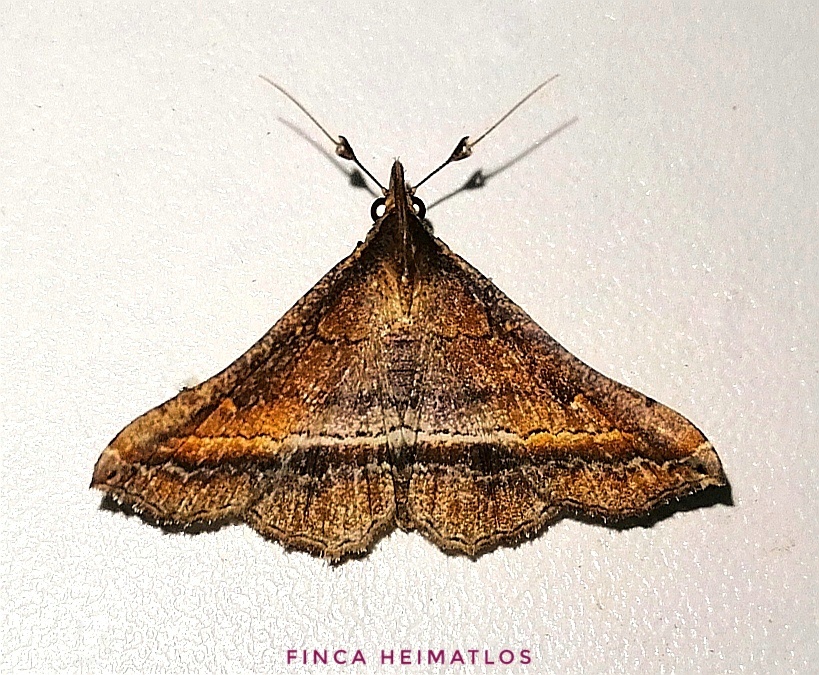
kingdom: Animalia
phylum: Arthropoda
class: Insecta
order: Lepidoptera
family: Erebidae
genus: Salia
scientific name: Salia lyceus
